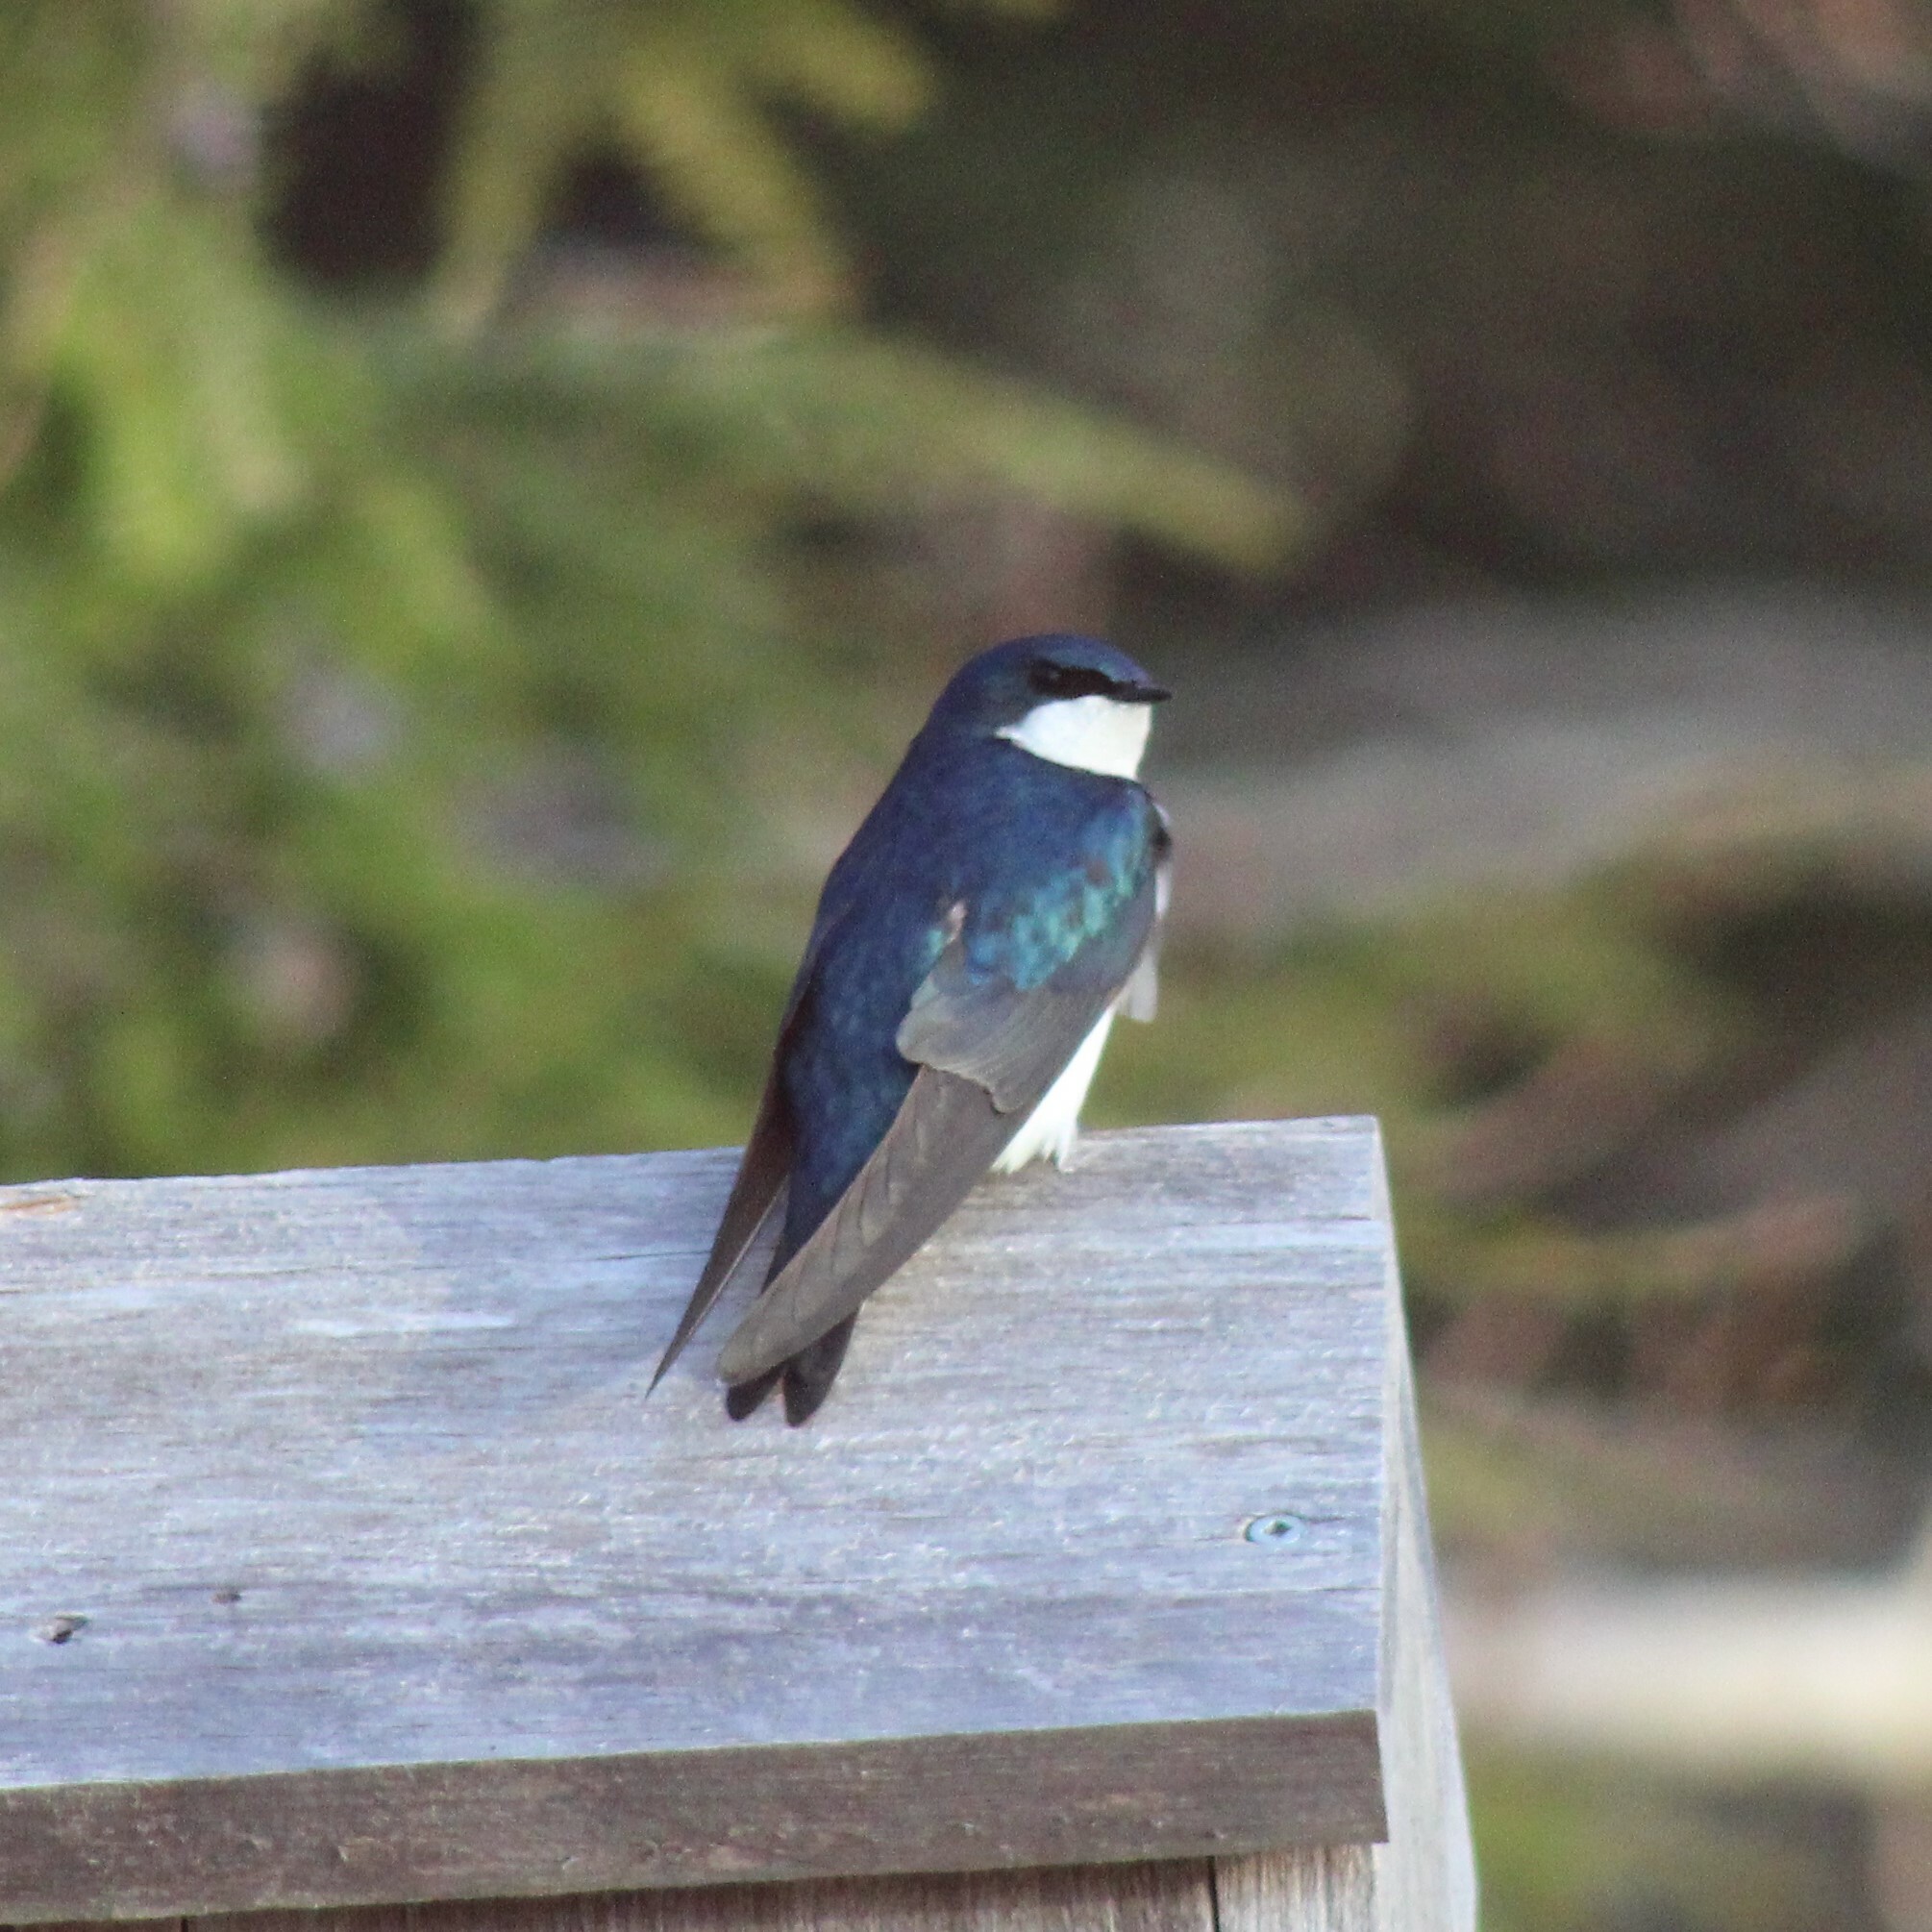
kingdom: Animalia
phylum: Chordata
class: Aves
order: Passeriformes
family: Hirundinidae
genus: Tachycineta
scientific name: Tachycineta bicolor
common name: Tree swallow
